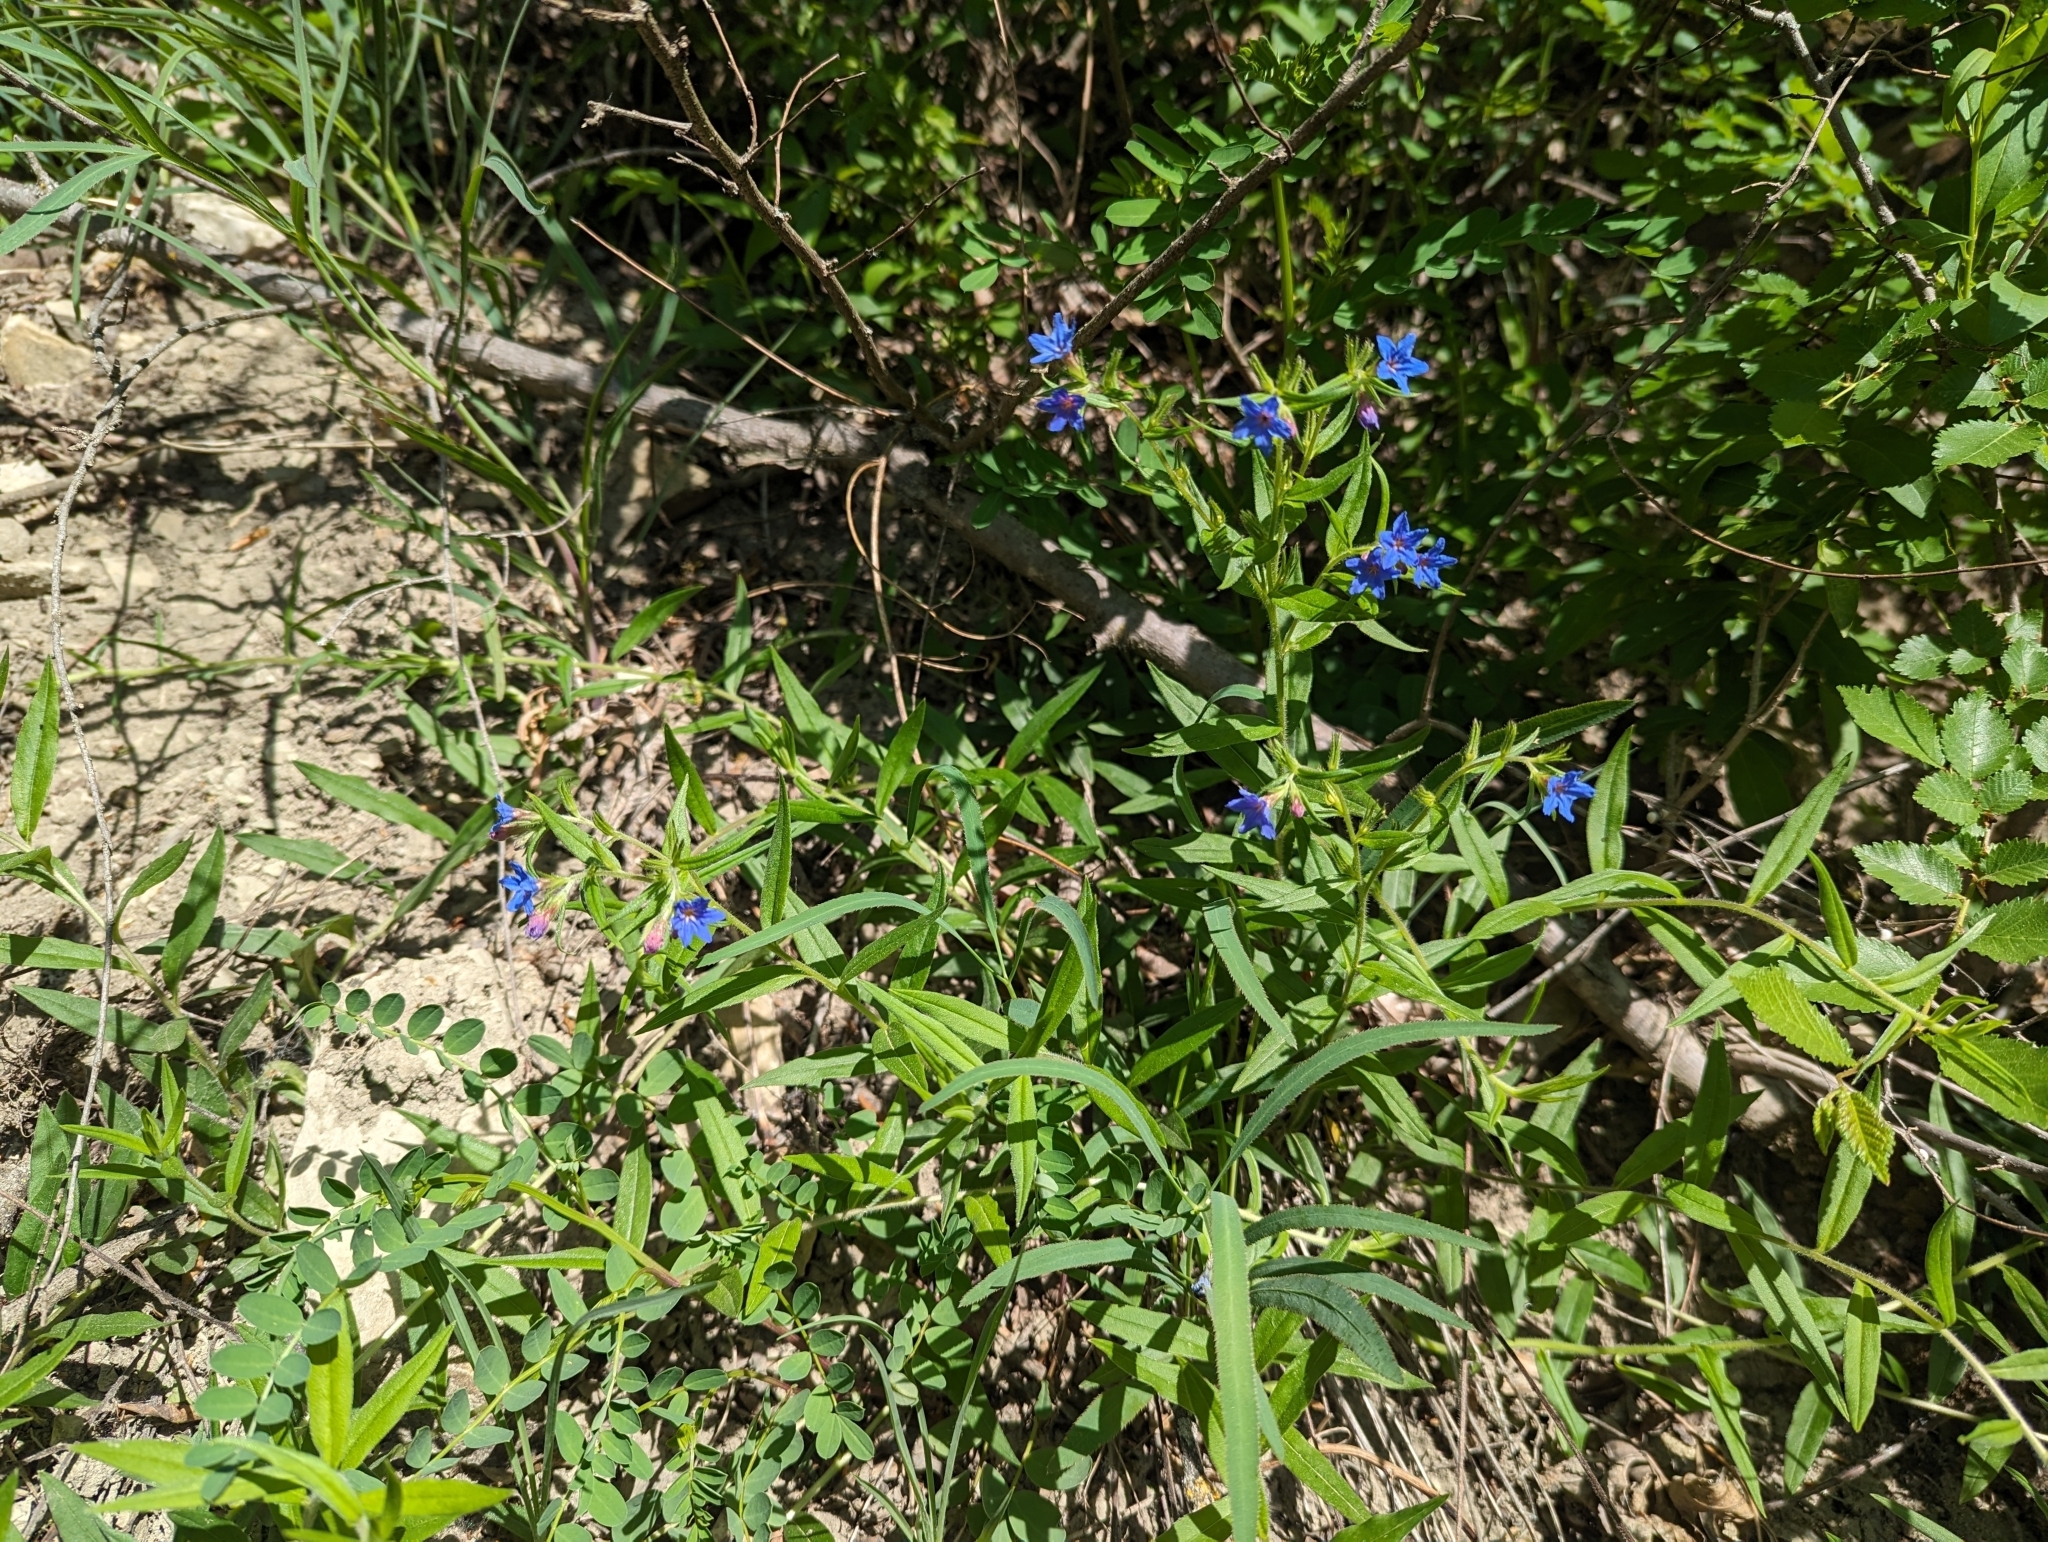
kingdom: Plantae
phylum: Tracheophyta
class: Magnoliopsida
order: Lamiales
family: Lamiaceae
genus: Salvia
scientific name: Salvia pratensis
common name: Meadow sage
